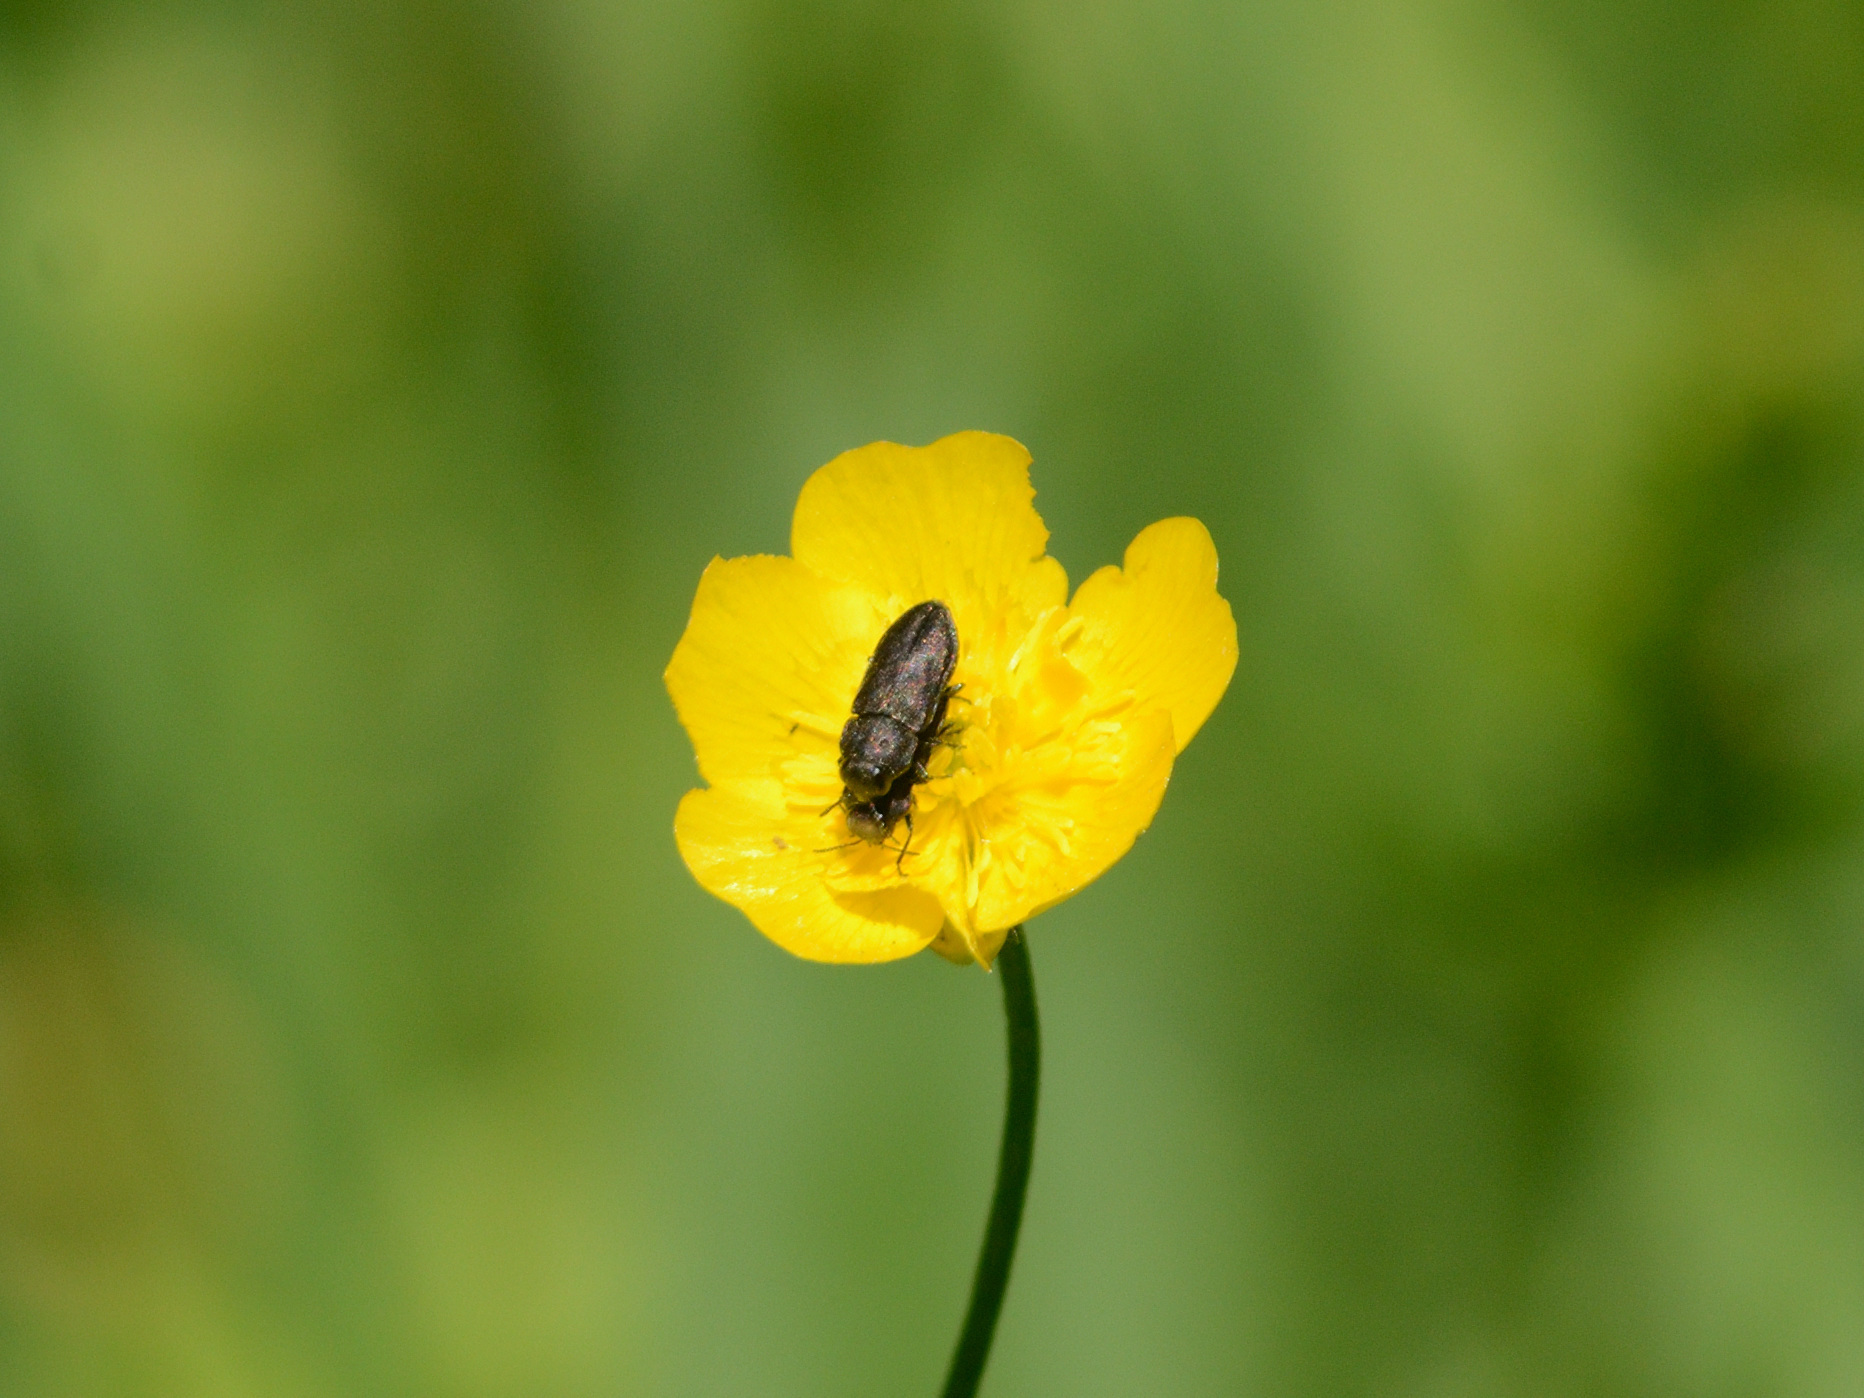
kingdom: Animalia
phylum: Arthropoda
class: Insecta
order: Coleoptera
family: Buprestidae
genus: Anthaxia
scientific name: Anthaxia quadripunctata
